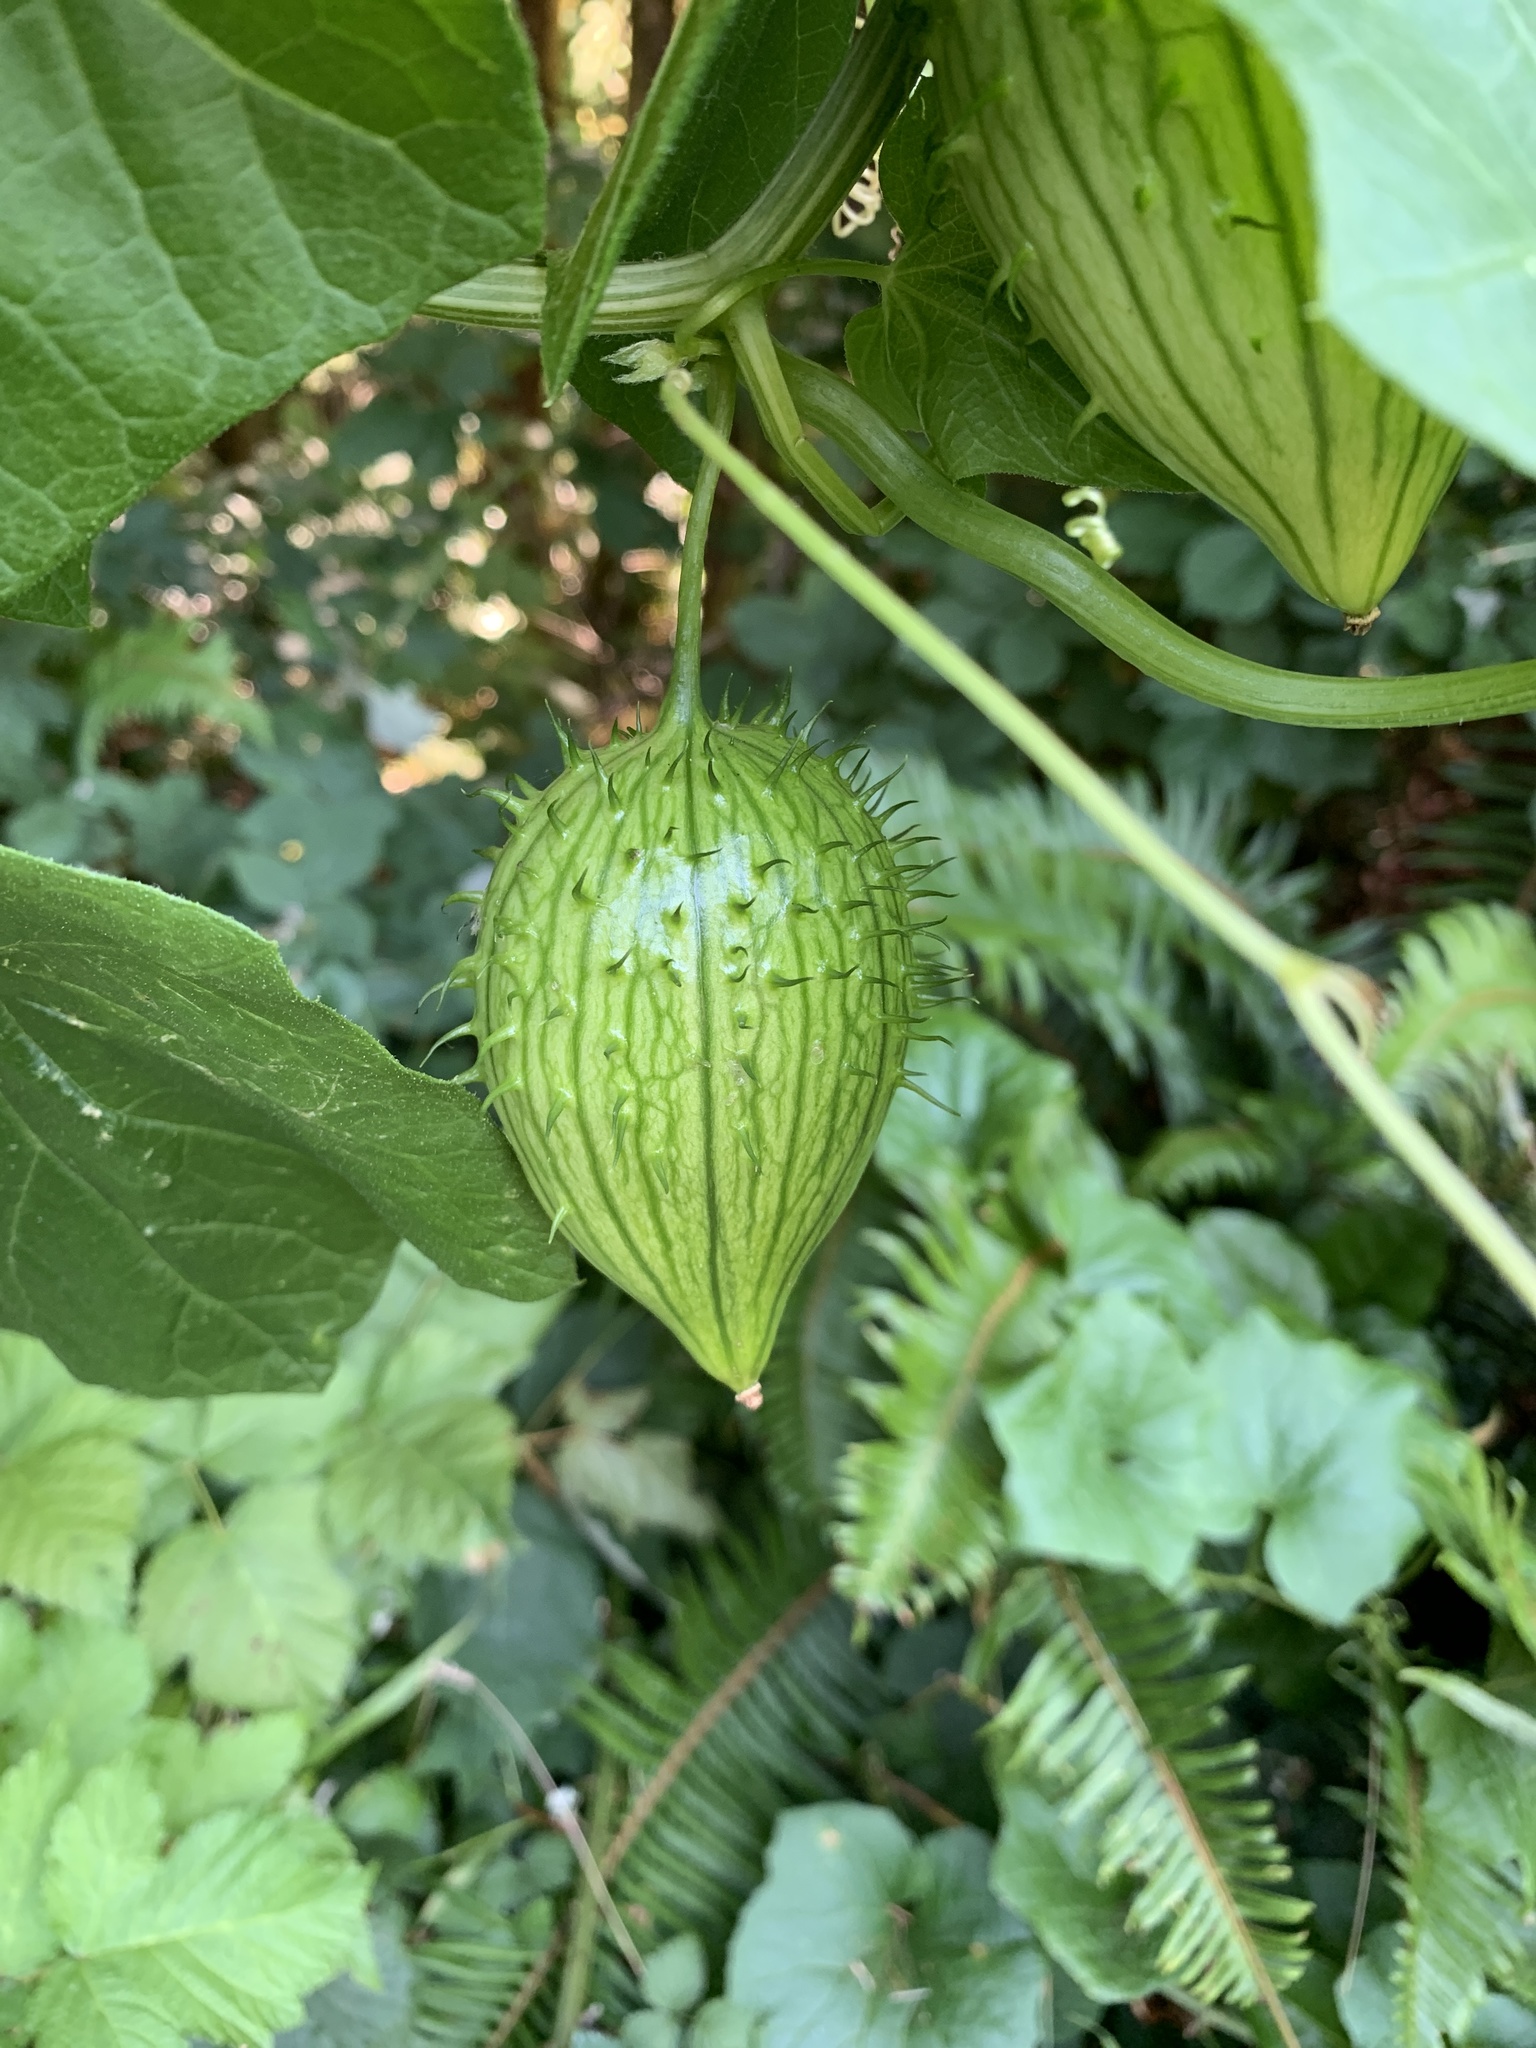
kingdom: Plantae
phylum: Tracheophyta
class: Magnoliopsida
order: Cucurbitales
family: Cucurbitaceae
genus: Marah
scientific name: Marah oregana
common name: Coastal manroot
